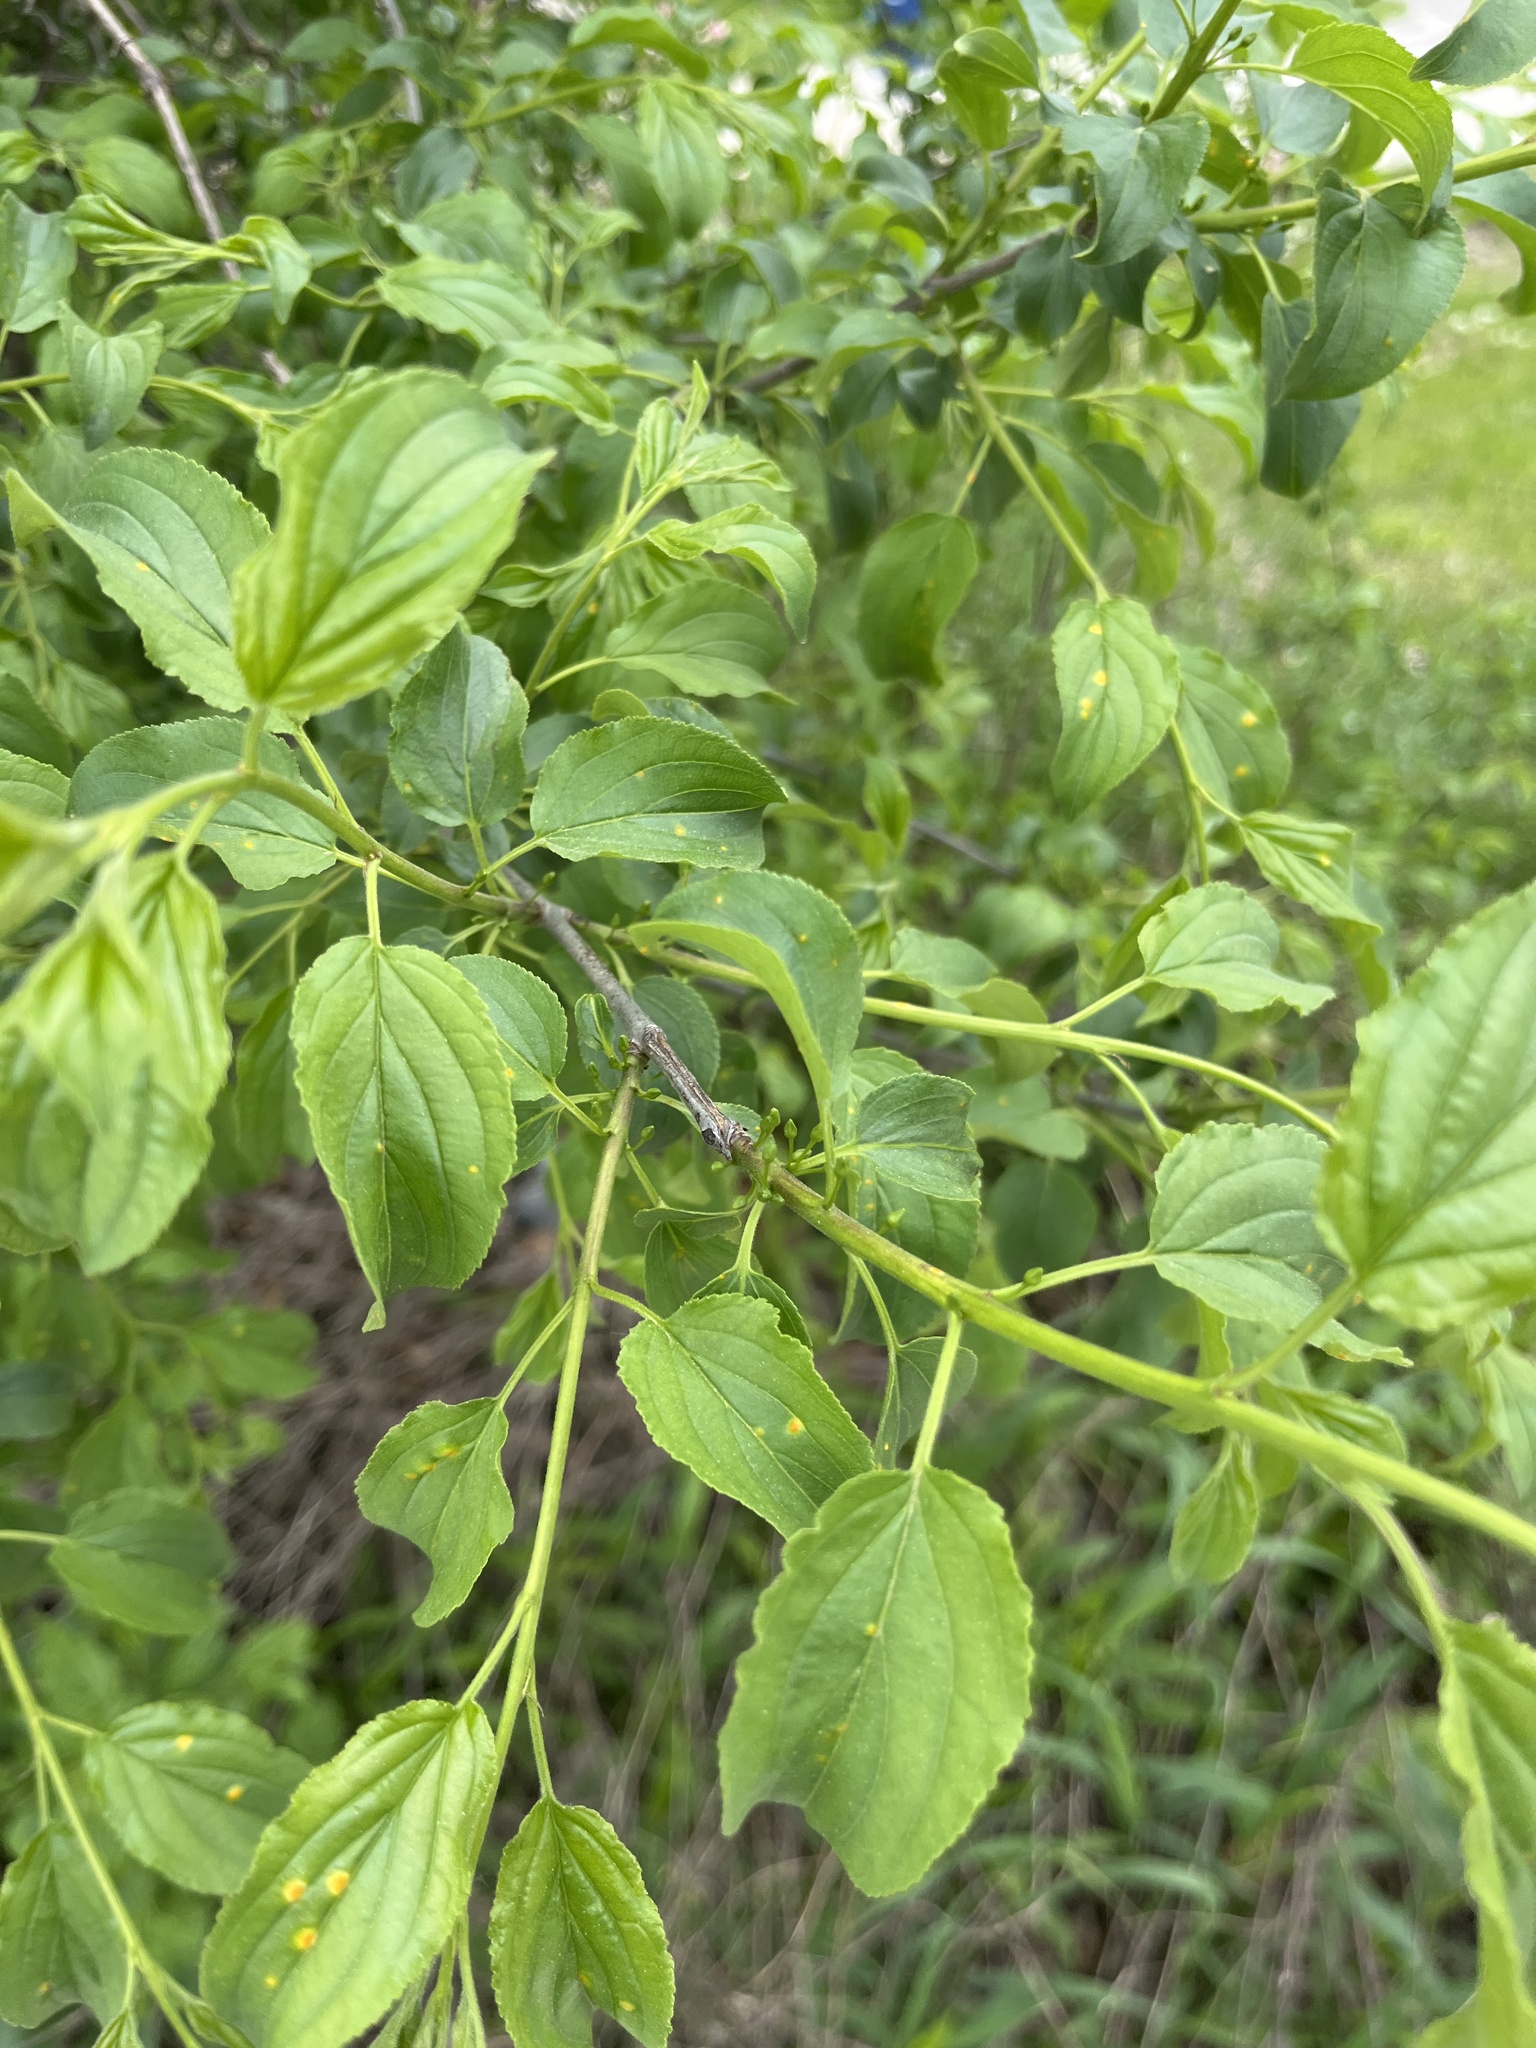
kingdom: Plantae
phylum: Tracheophyta
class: Magnoliopsida
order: Rosales
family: Rhamnaceae
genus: Rhamnus
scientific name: Rhamnus cathartica
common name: Common buckthorn
